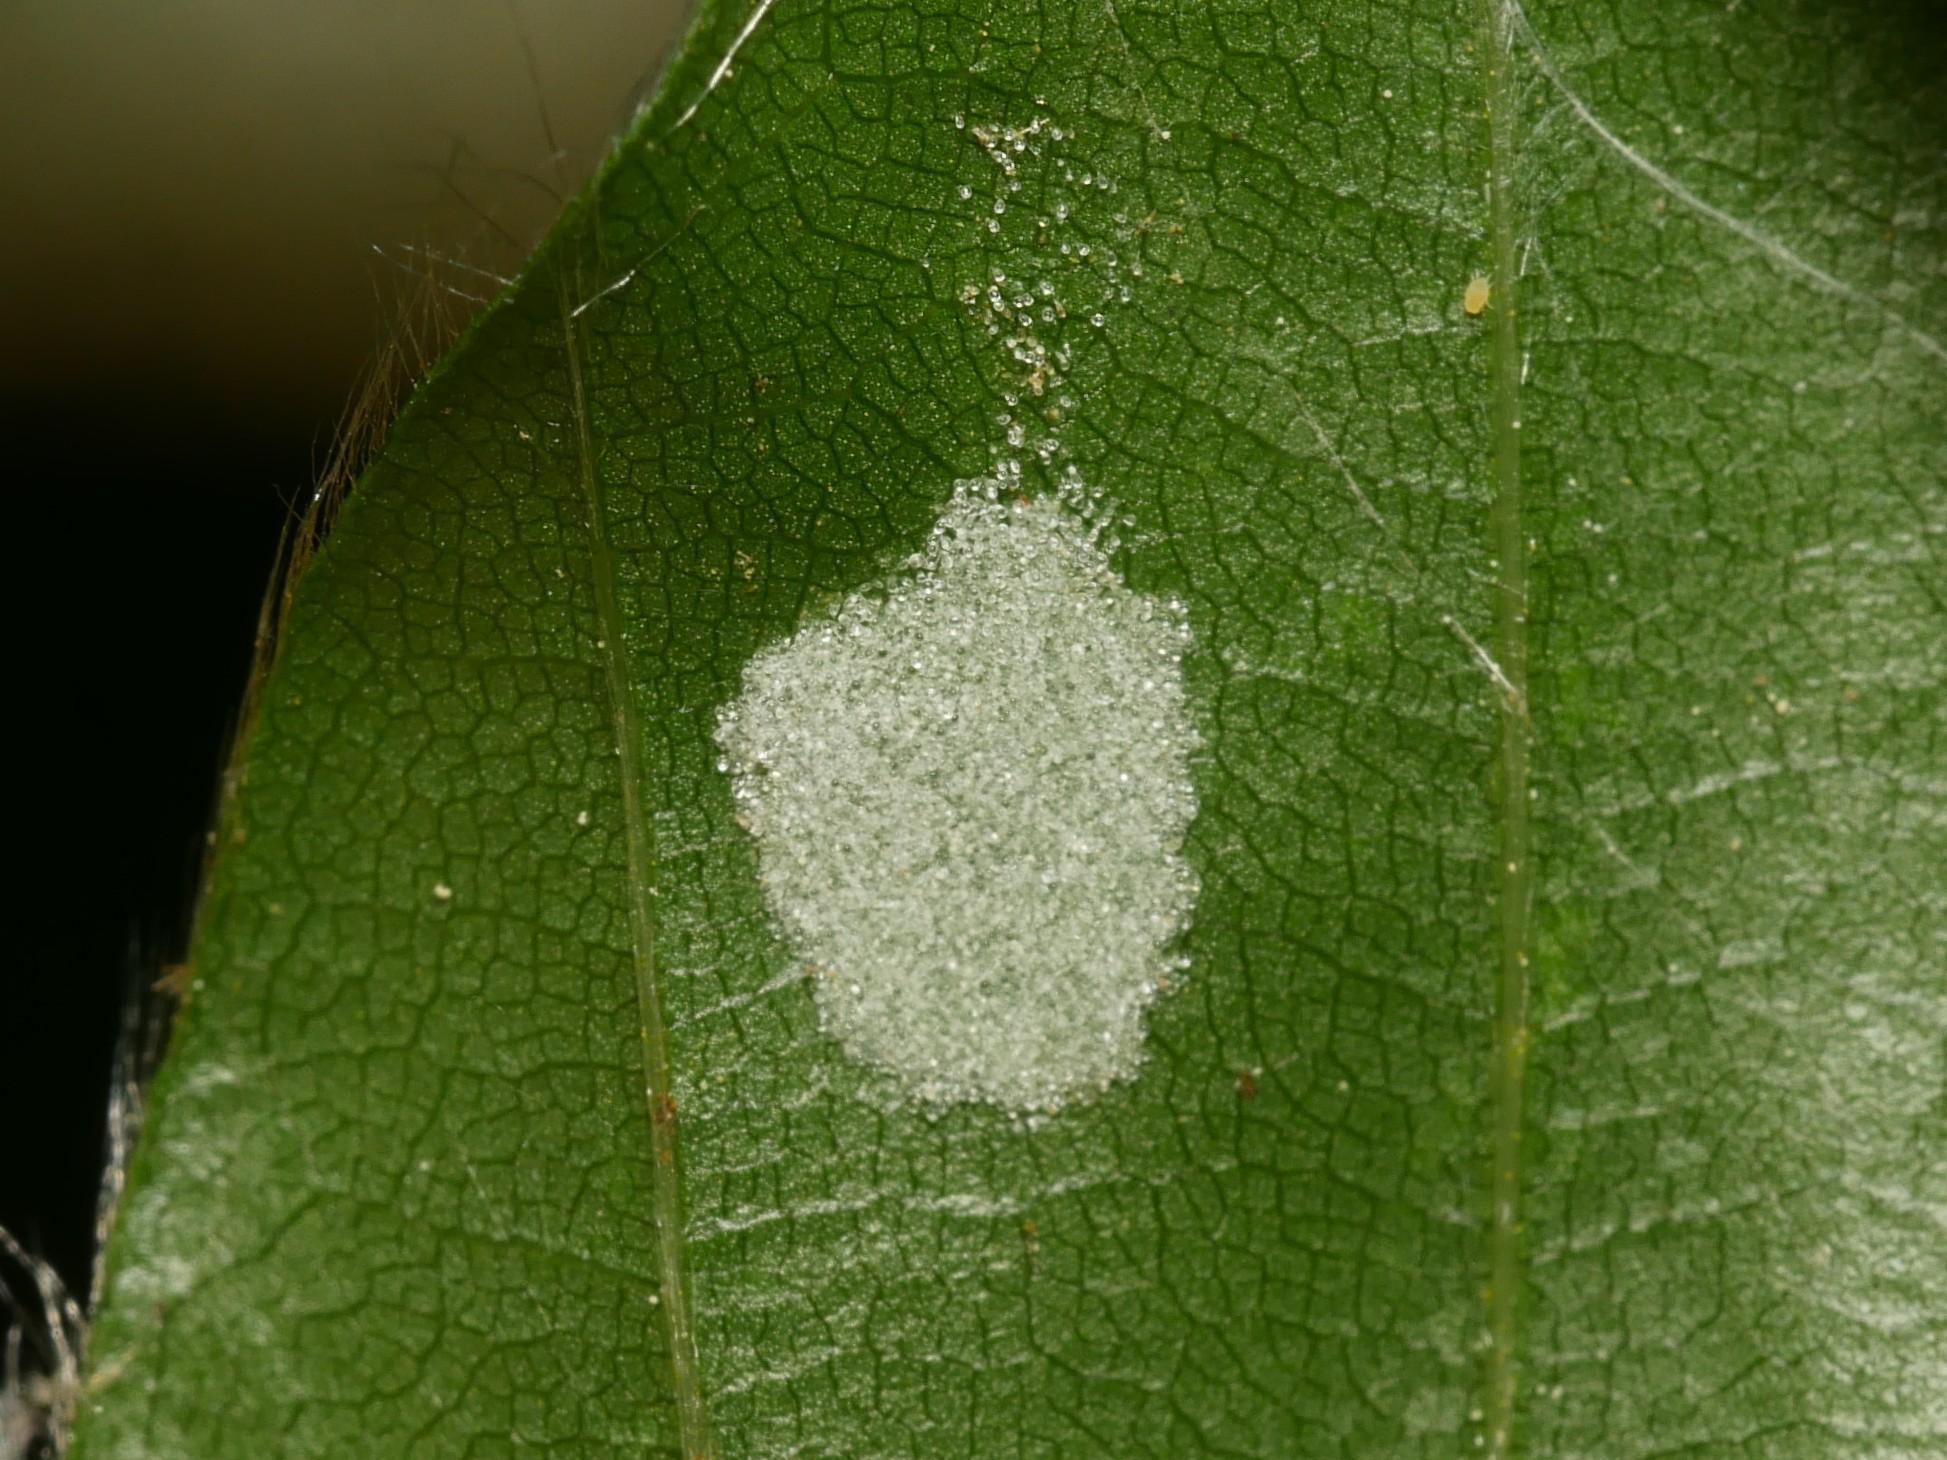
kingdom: Animalia
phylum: Arthropoda
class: Arachnida
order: Trombidiformes
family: Eriophyidae
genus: Aceria
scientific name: Aceria nervisequa
